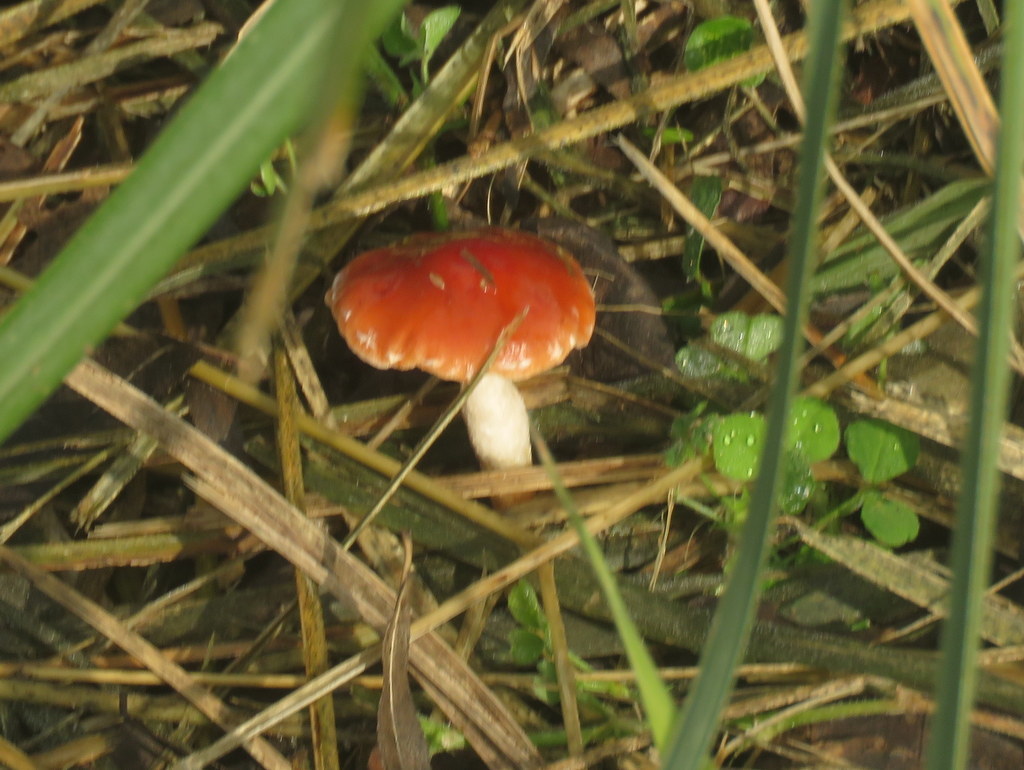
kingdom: Fungi
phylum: Basidiomycota
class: Agaricomycetes
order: Agaricales
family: Strophariaceae
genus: Leratiomyces
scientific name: Leratiomyces ceres
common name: Redlead roundhead
